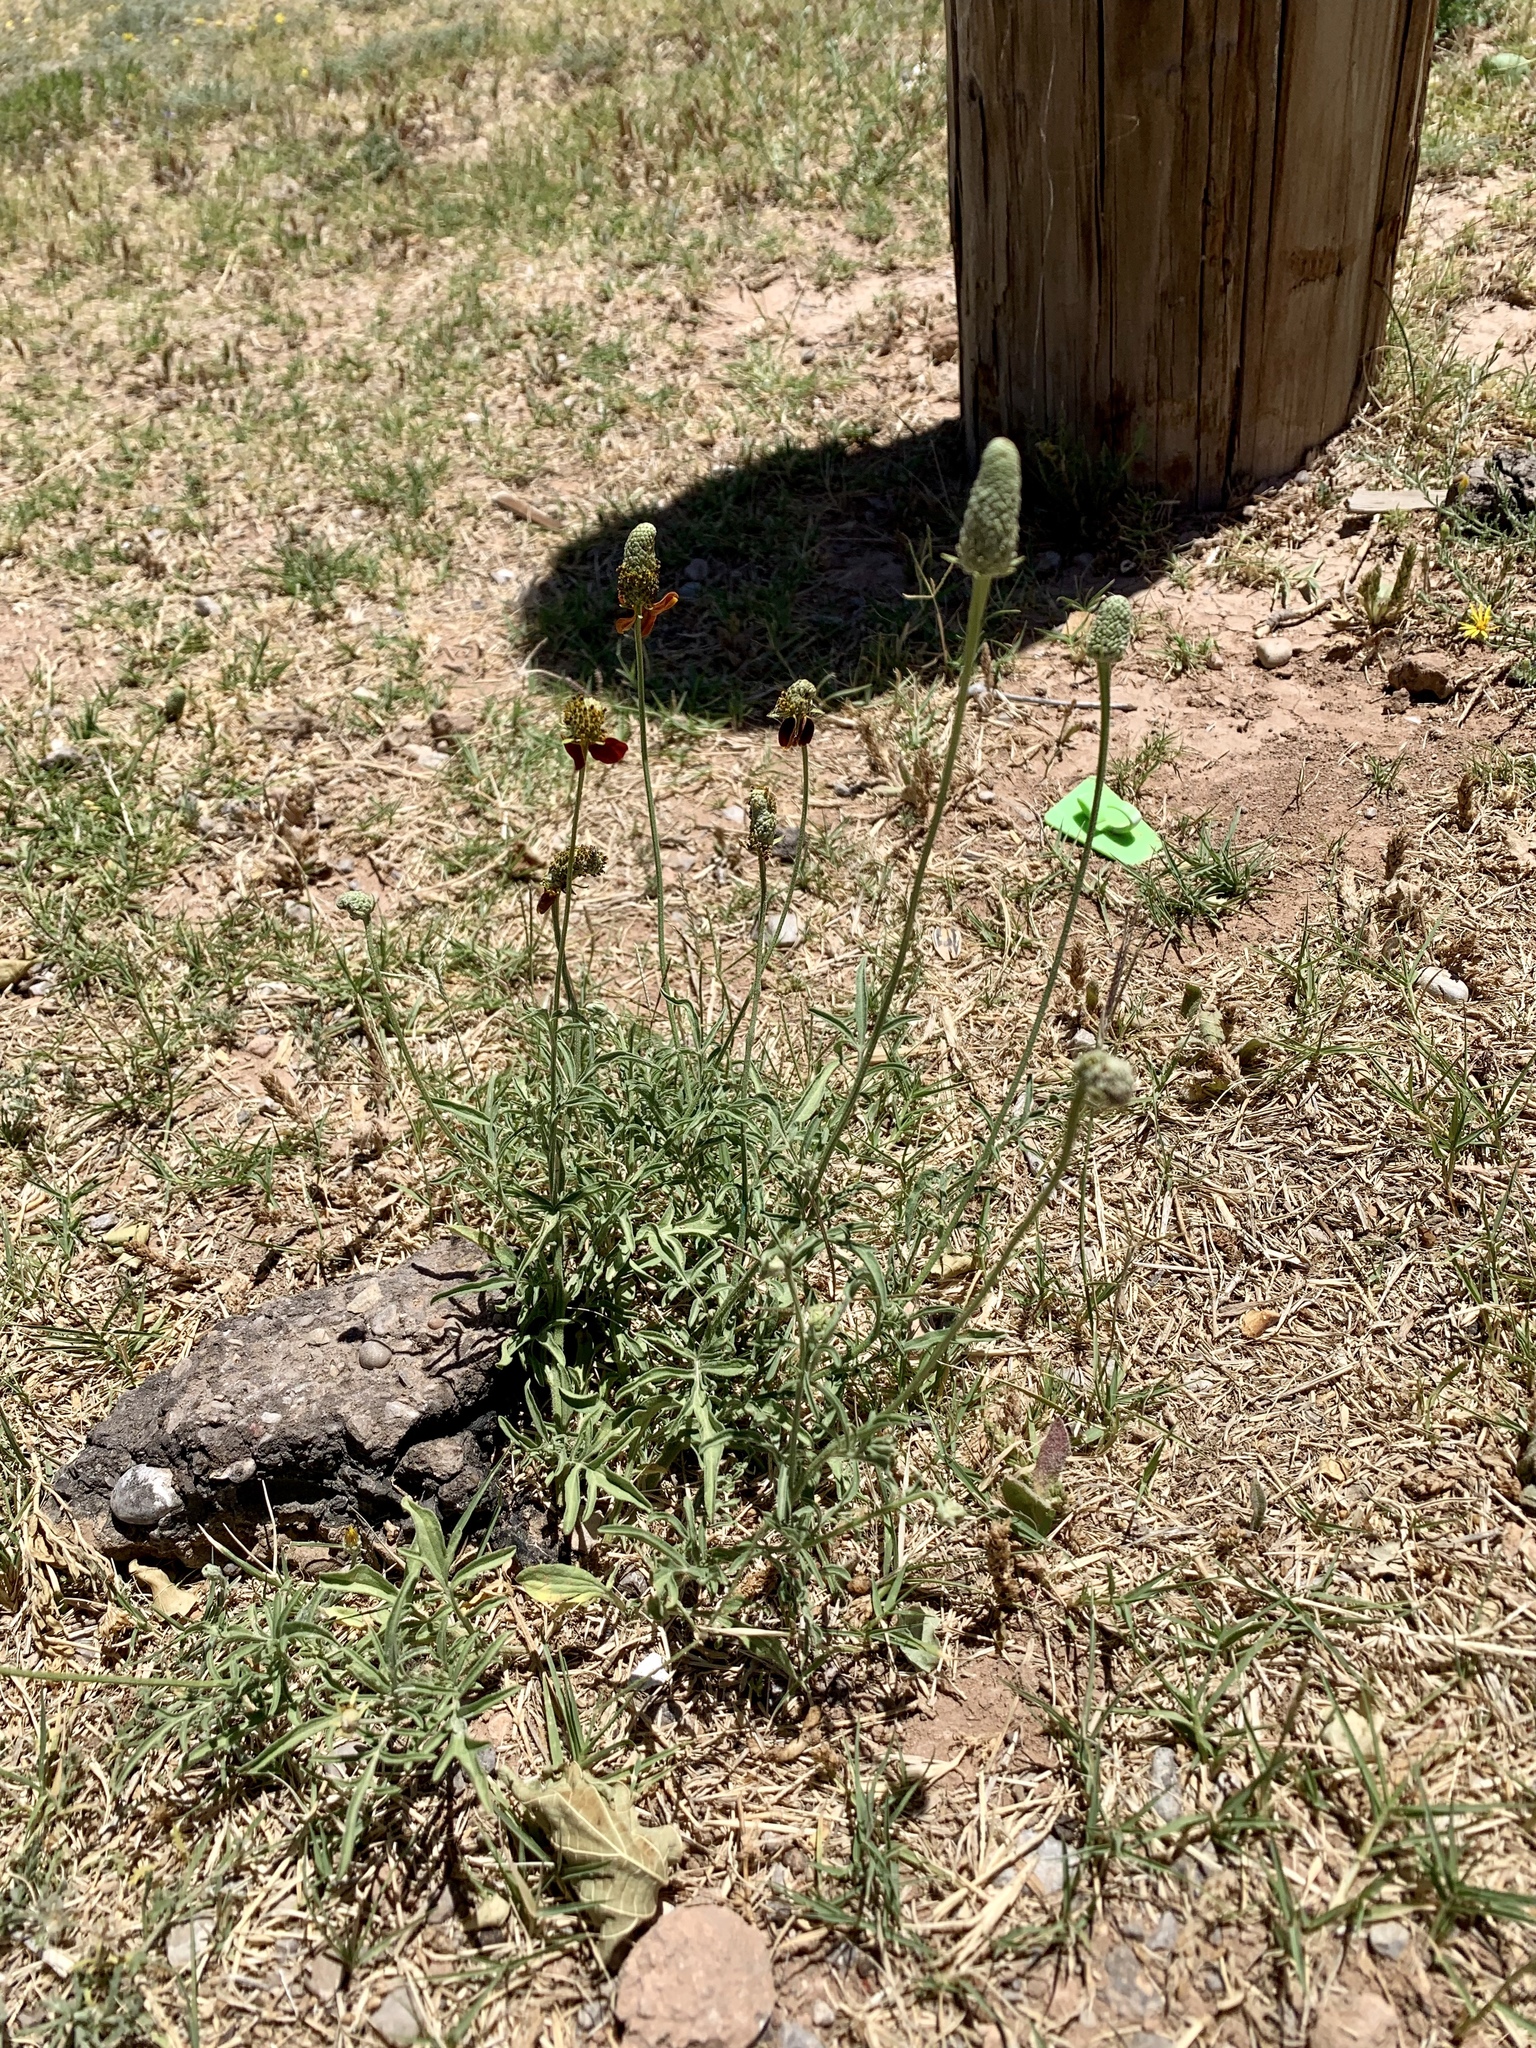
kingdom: Plantae
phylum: Tracheophyta
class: Magnoliopsida
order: Asterales
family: Asteraceae
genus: Ratibida
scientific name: Ratibida columnifera
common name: Prairie coneflower
